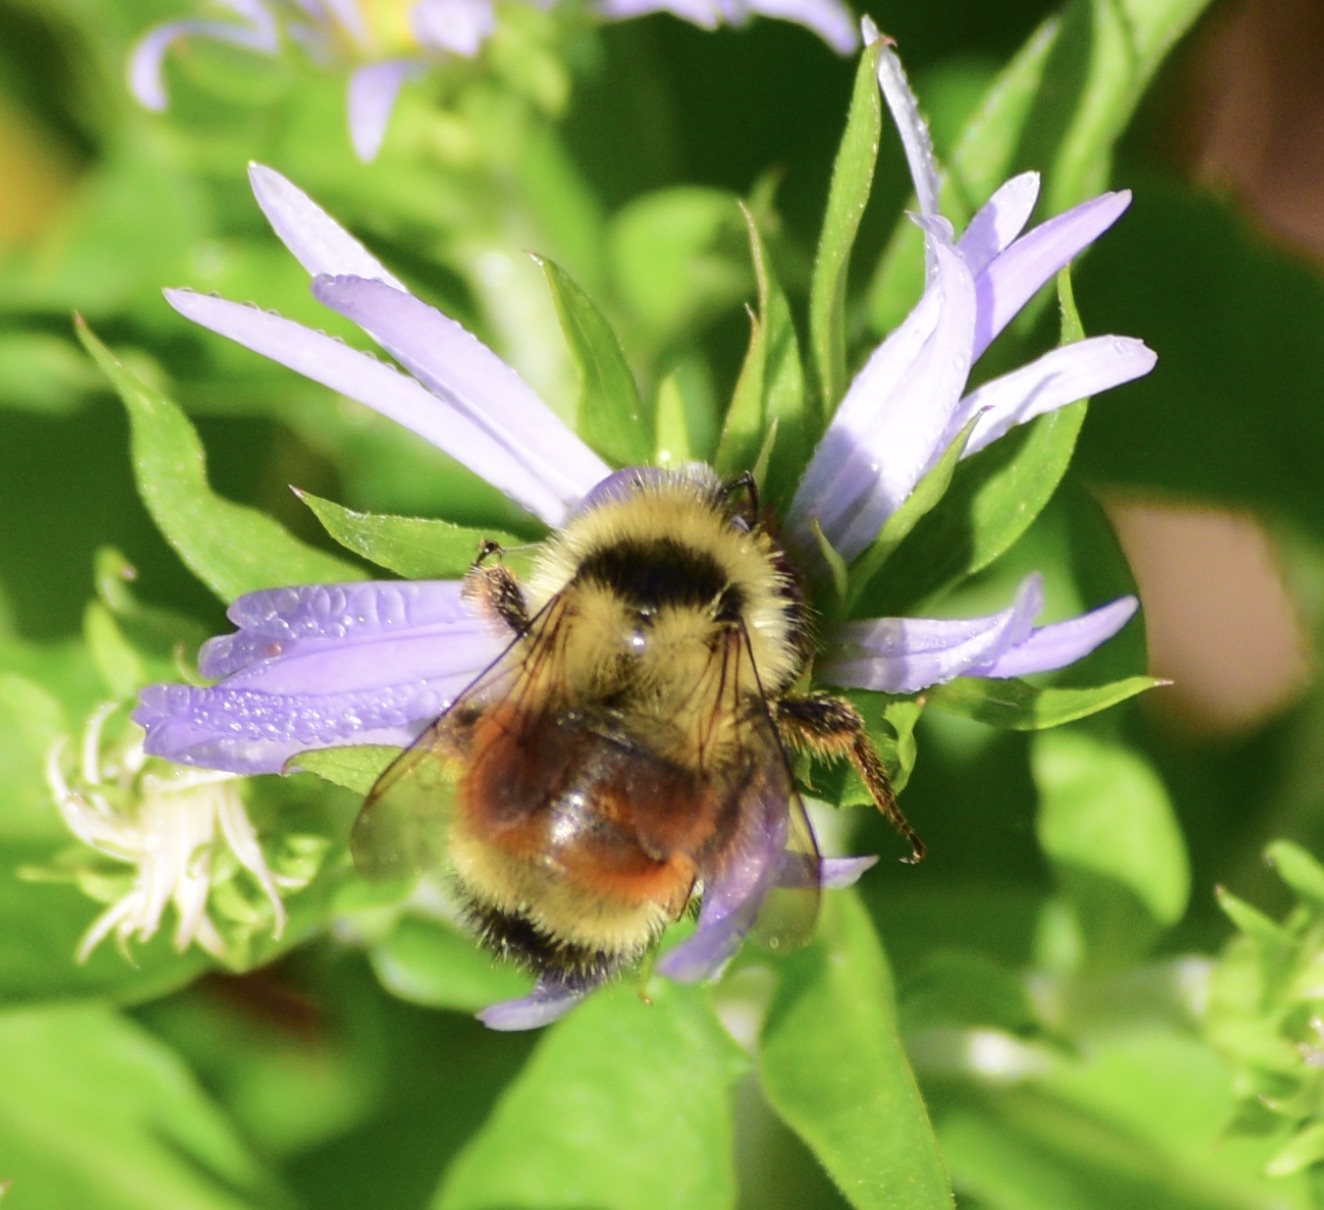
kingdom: Animalia
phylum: Arthropoda
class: Insecta
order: Hymenoptera
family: Apidae
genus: Bombus
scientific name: Bombus ternarius
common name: Tri-colored bumble bee
